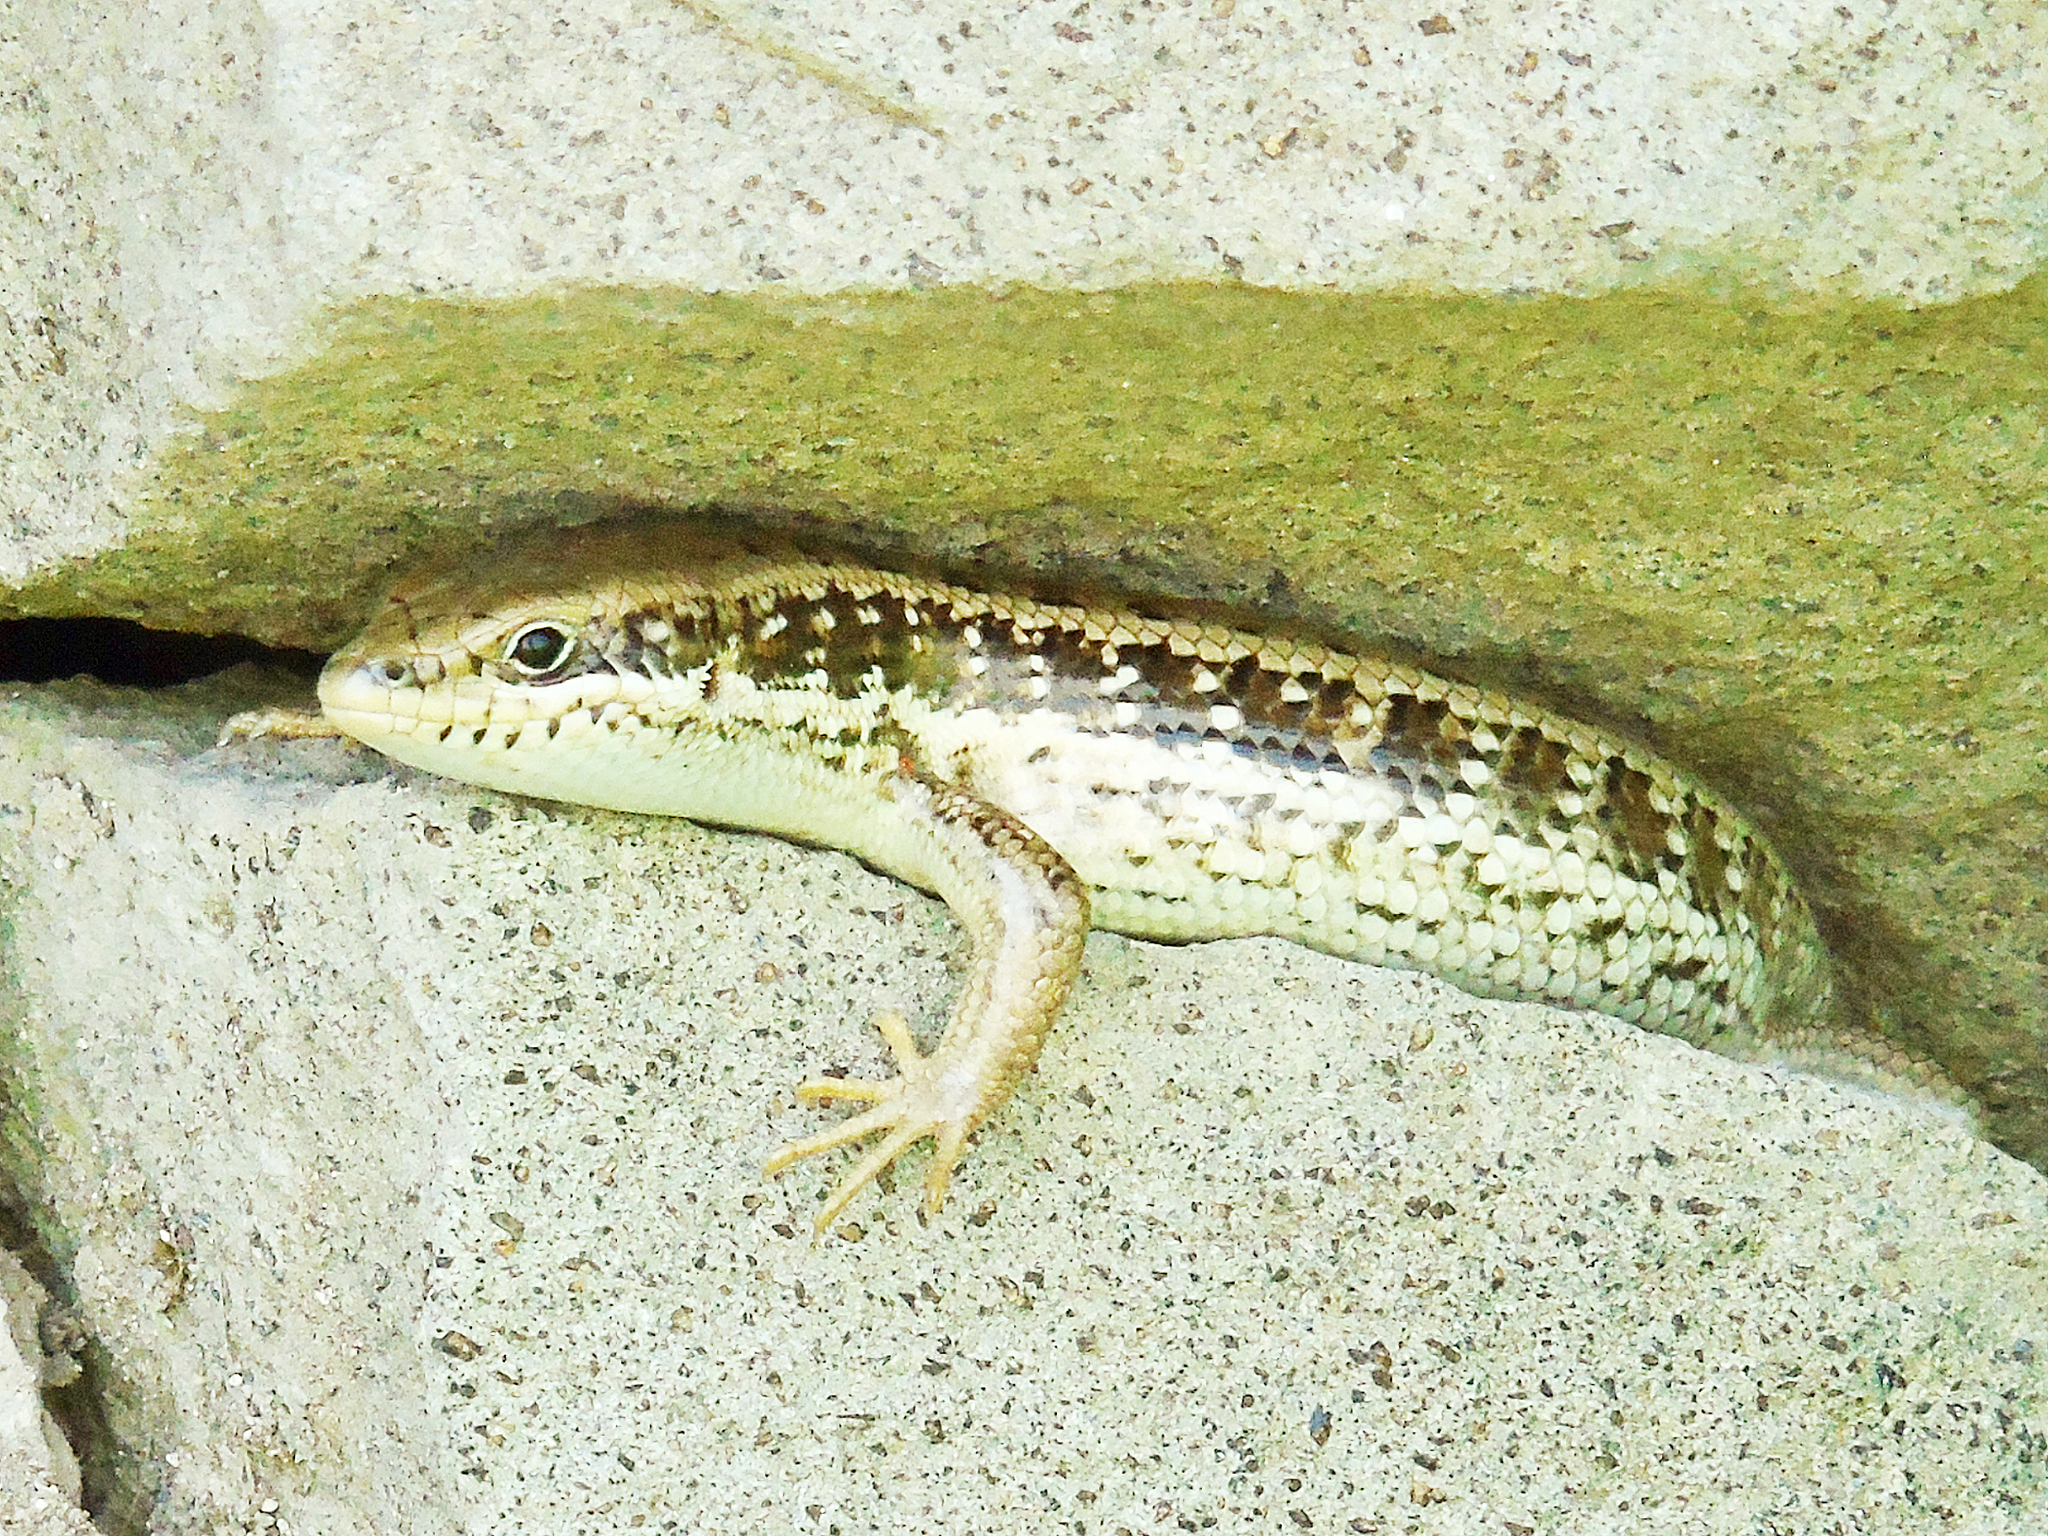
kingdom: Animalia
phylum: Chordata
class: Squamata
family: Scincidae
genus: Heremites
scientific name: Heremites auratus
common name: Golden grass mabuya
